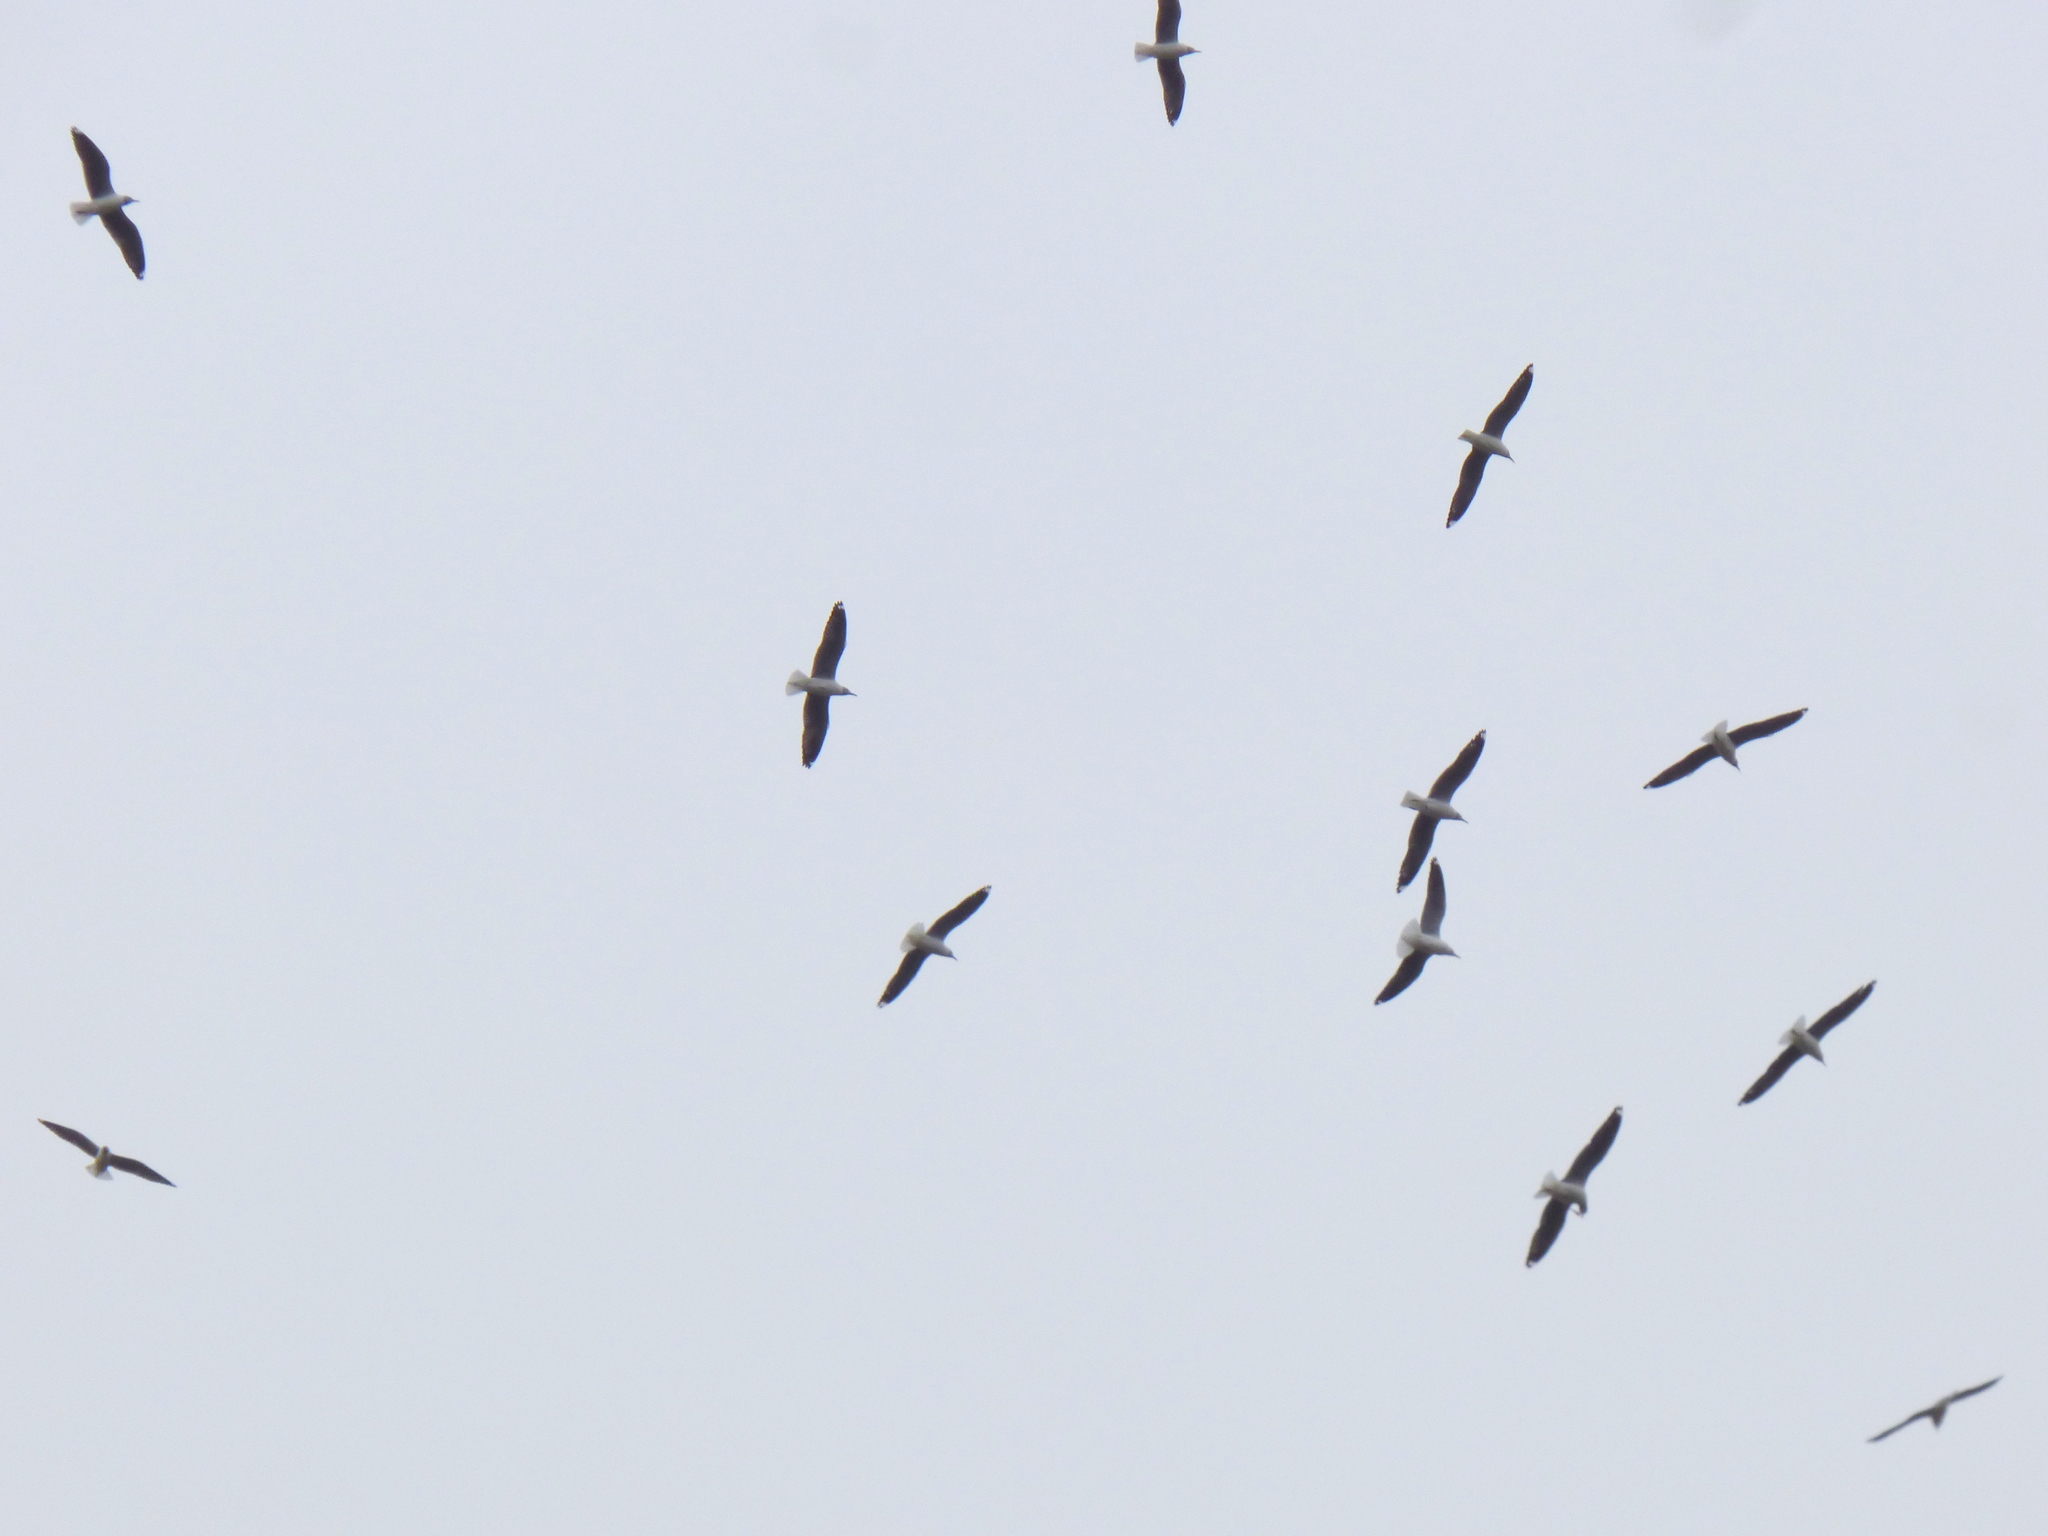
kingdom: Animalia
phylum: Chordata
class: Aves
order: Charadriiformes
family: Laridae
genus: Chroicocephalus
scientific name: Chroicocephalus cirrocephalus
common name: Grey-headed gull
